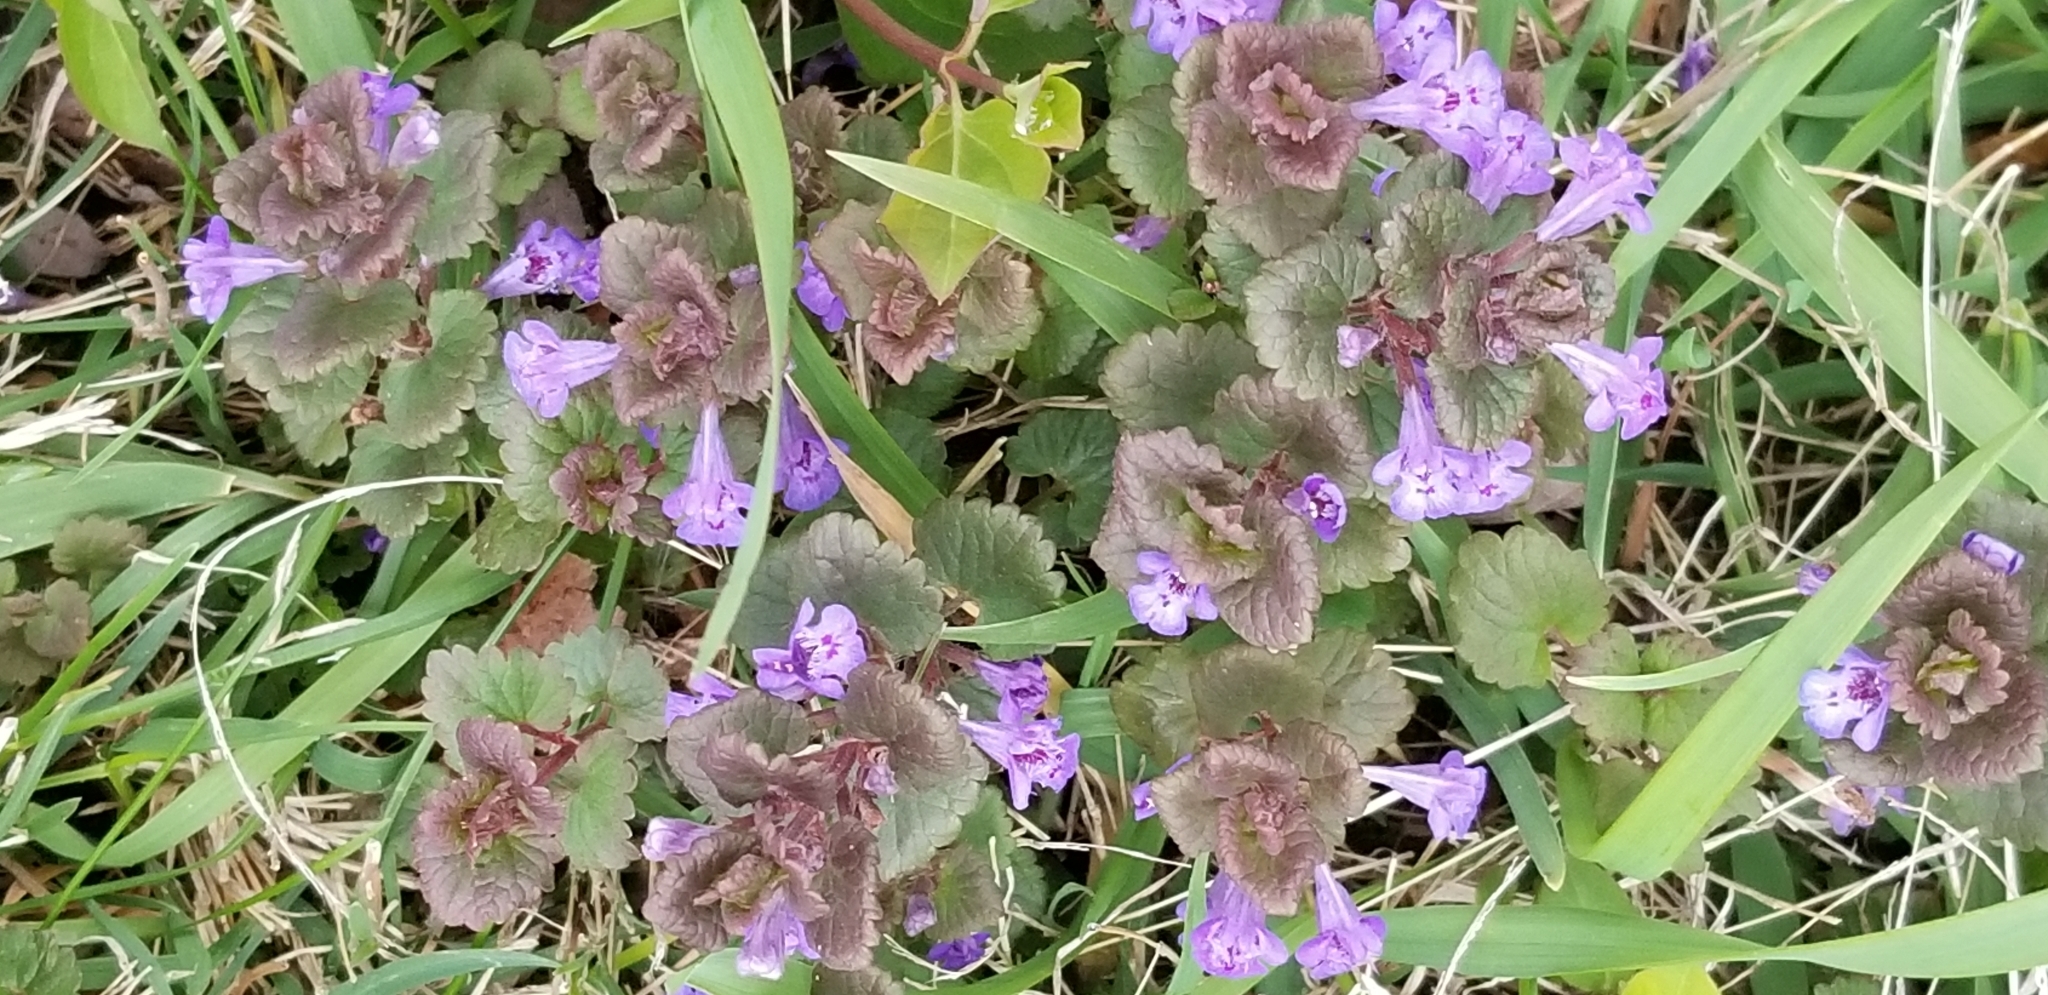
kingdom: Plantae
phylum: Tracheophyta
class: Magnoliopsida
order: Lamiales
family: Lamiaceae
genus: Glechoma
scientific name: Glechoma hederacea
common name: Ground ivy
